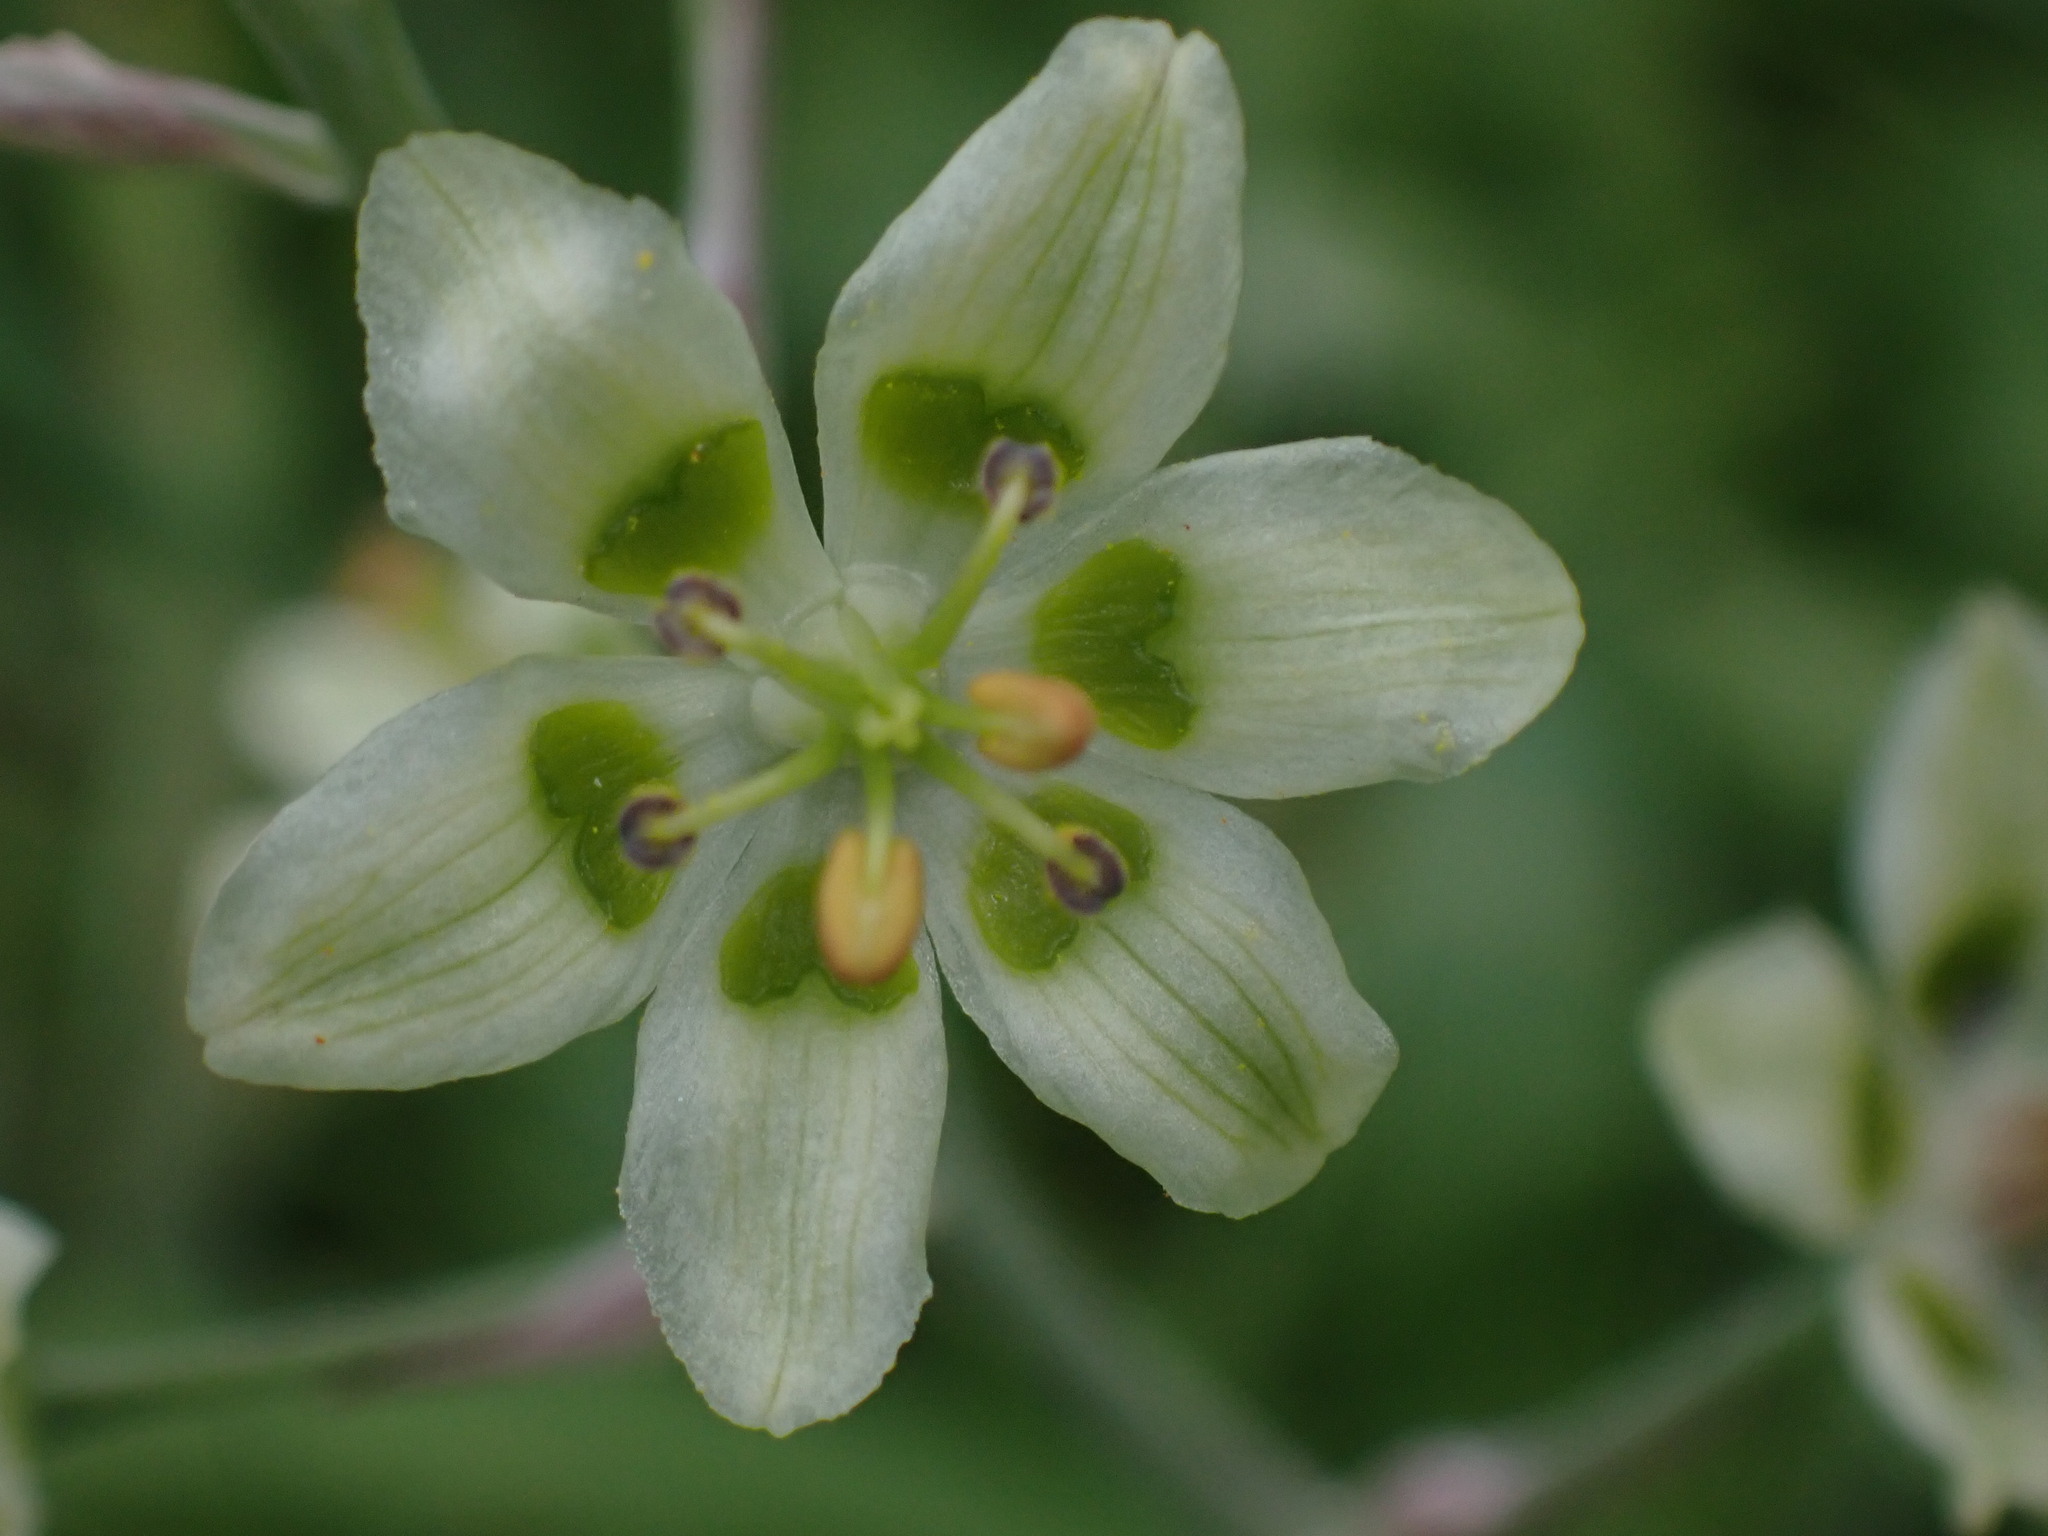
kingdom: Plantae
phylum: Tracheophyta
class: Liliopsida
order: Liliales
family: Melanthiaceae
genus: Anticlea
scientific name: Anticlea elegans
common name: Mountain death camas
